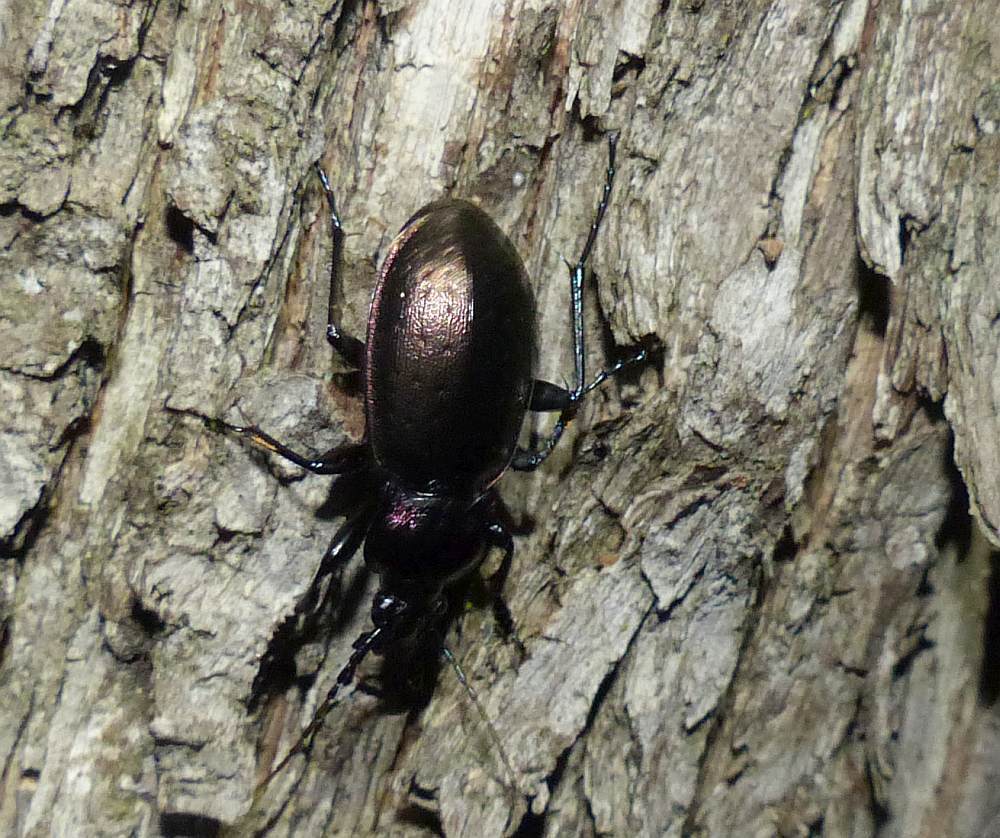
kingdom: Animalia
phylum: Arthropoda
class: Insecta
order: Coleoptera
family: Carabidae
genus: Carabus
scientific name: Carabus nemoralis
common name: European ground beetle
